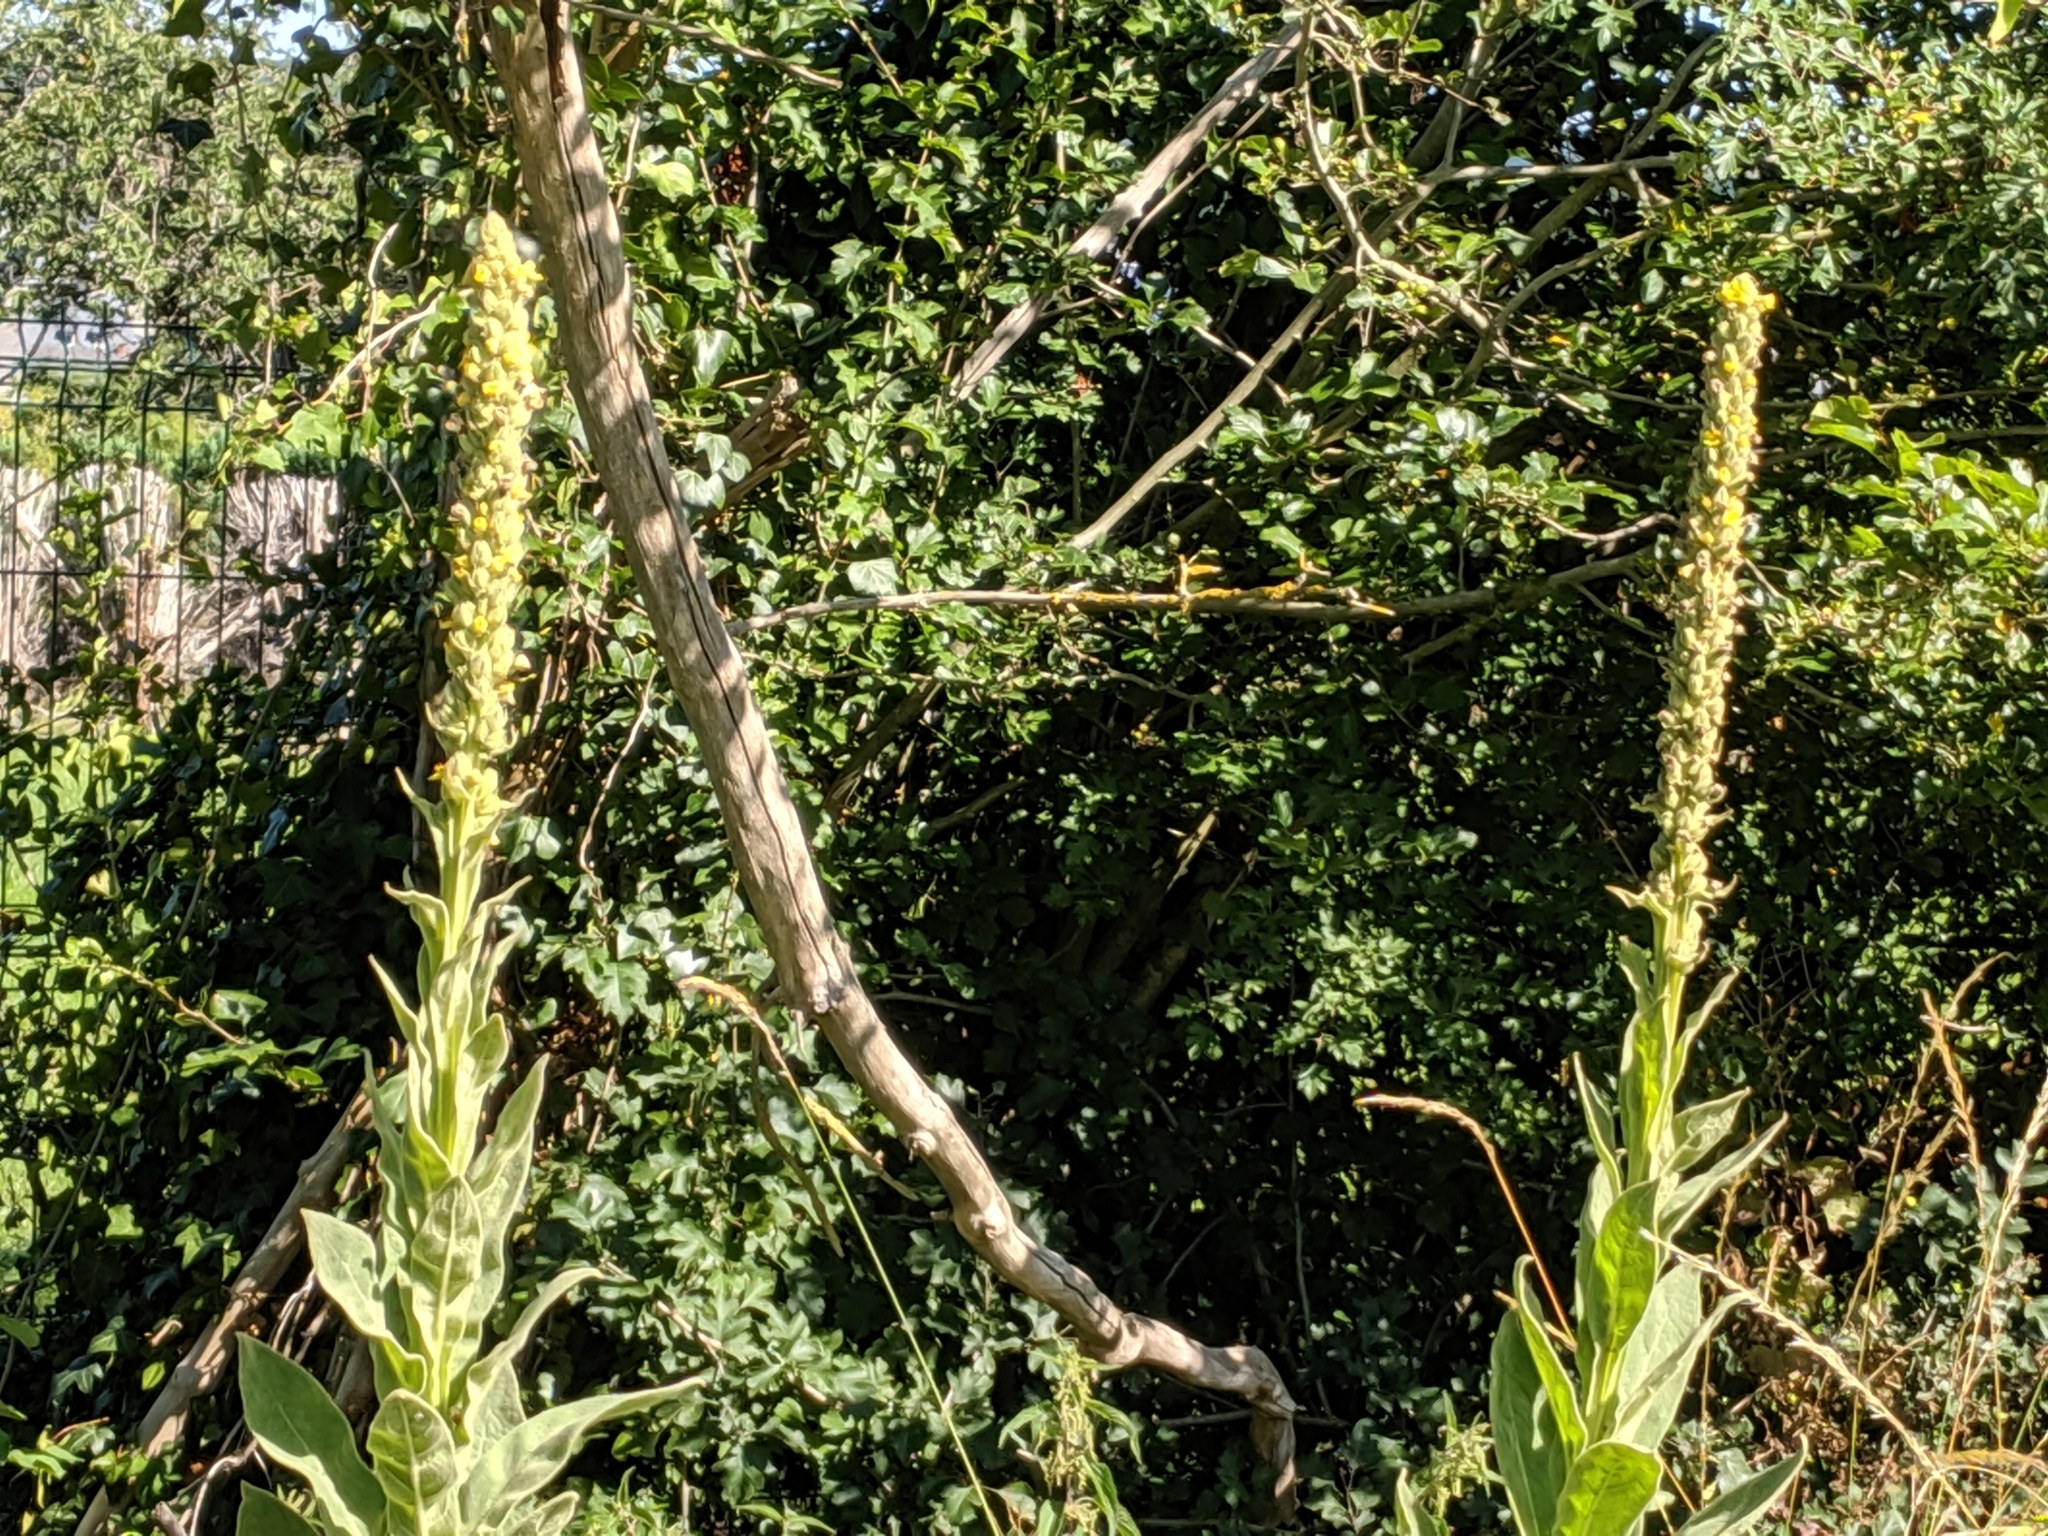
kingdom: Plantae
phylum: Tracheophyta
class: Magnoliopsida
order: Lamiales
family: Scrophulariaceae
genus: Verbascum
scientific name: Verbascum thapsus
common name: Common mullein
